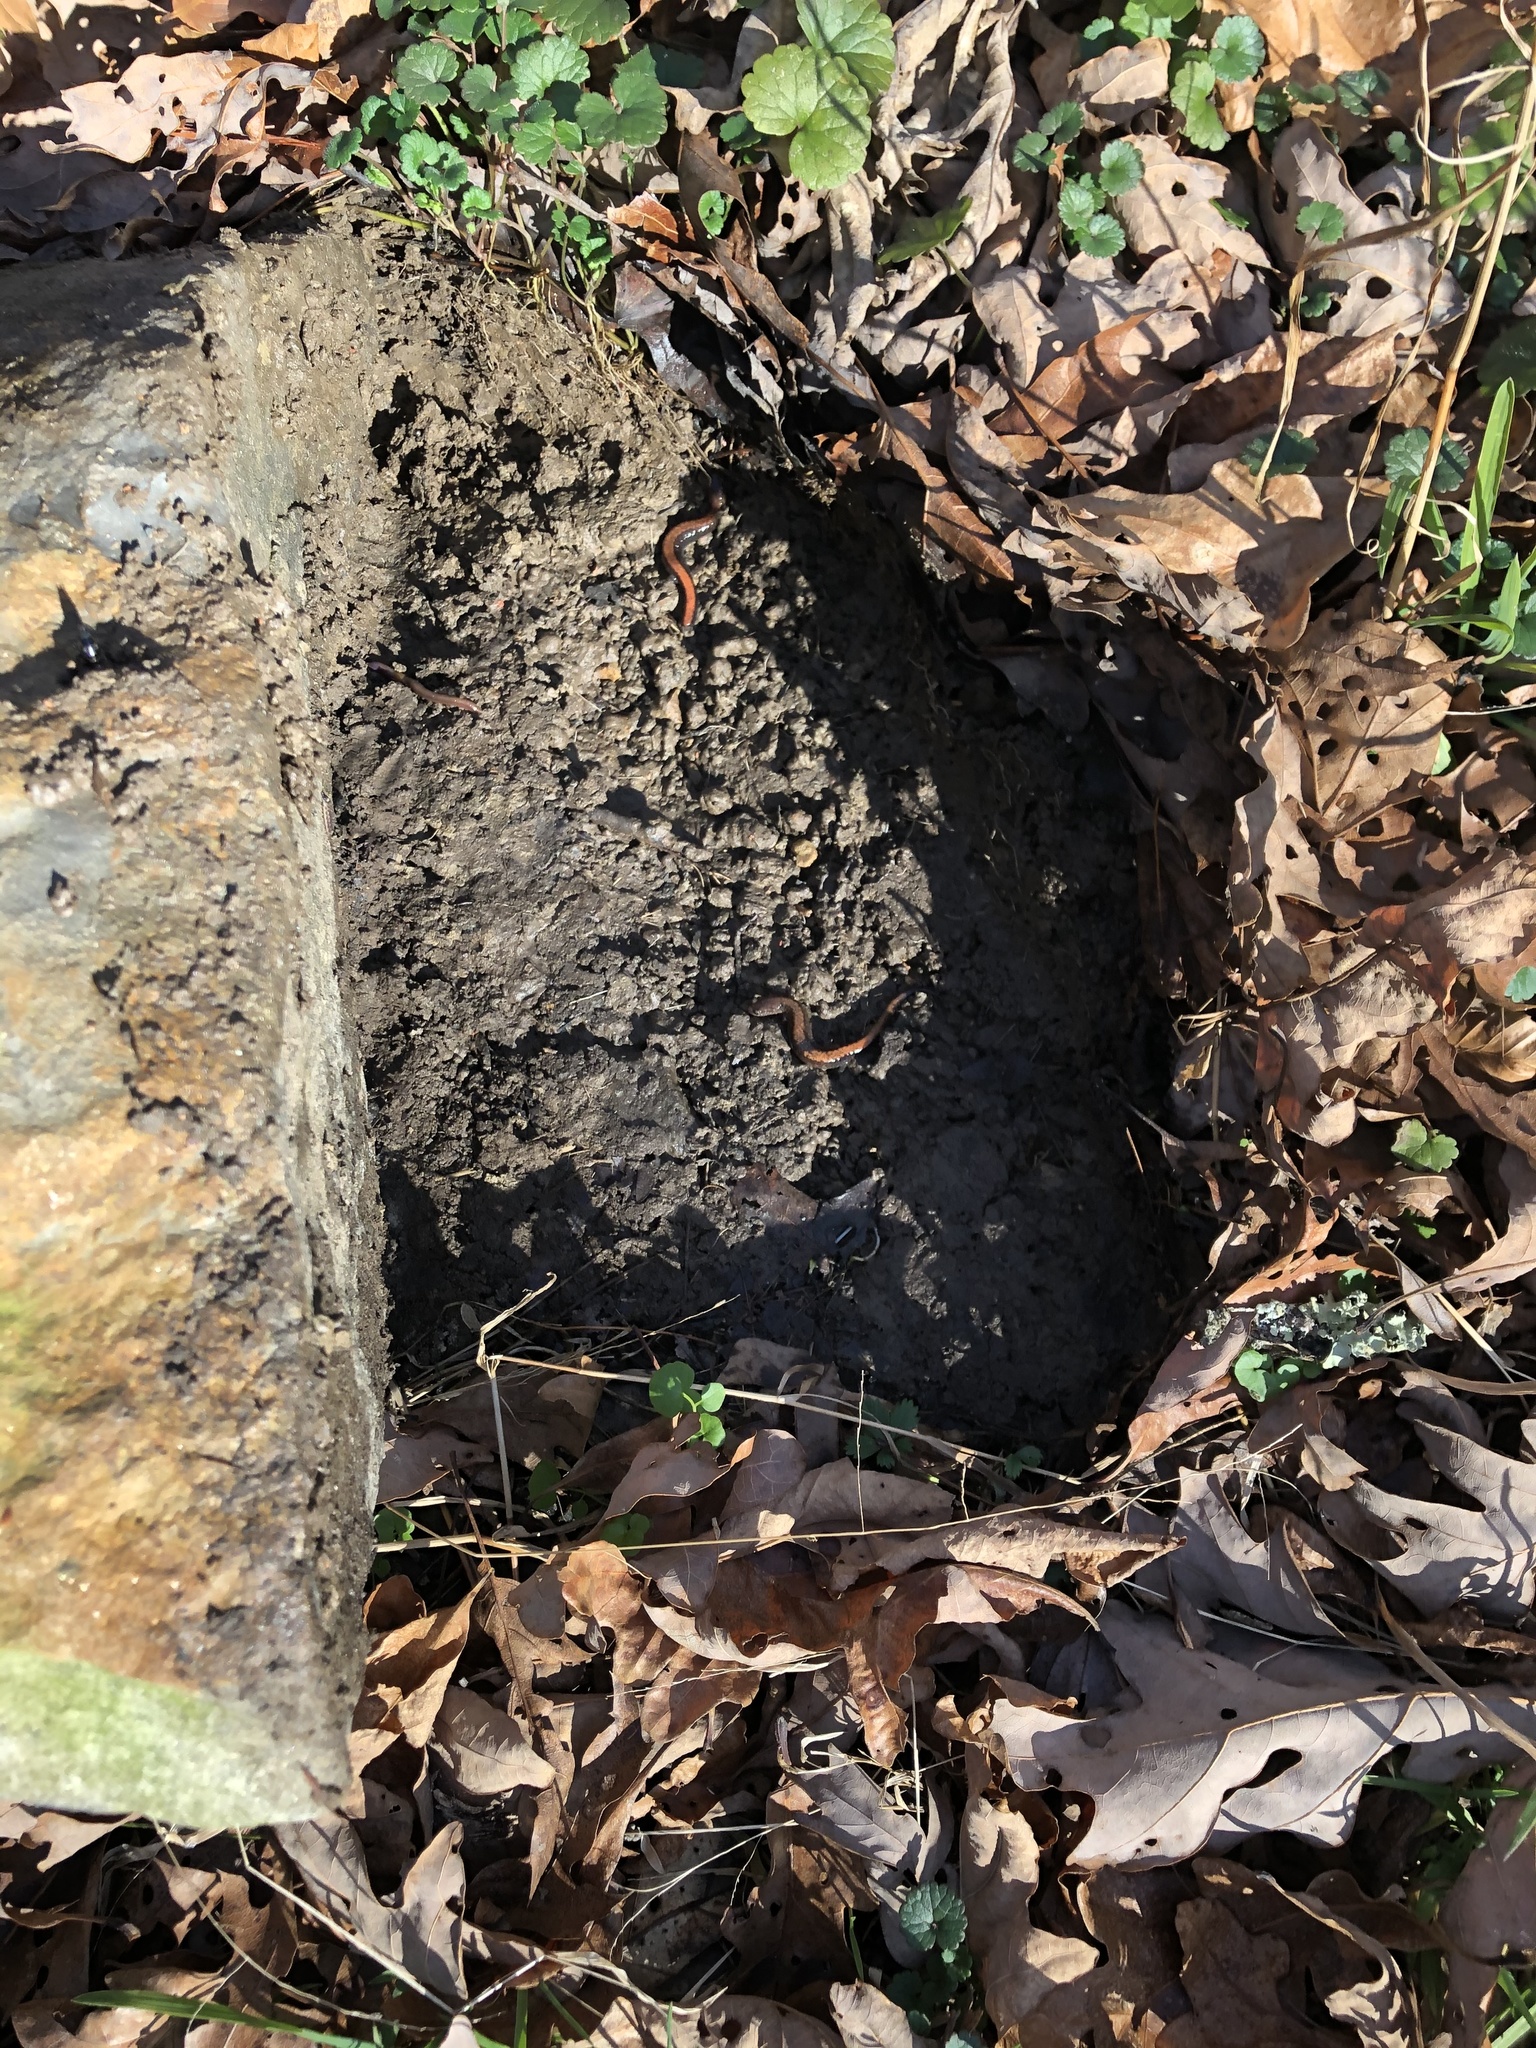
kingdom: Animalia
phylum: Chordata
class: Amphibia
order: Caudata
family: Plethodontidae
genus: Plethodon
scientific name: Plethodon cinereus
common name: Redback salamander
